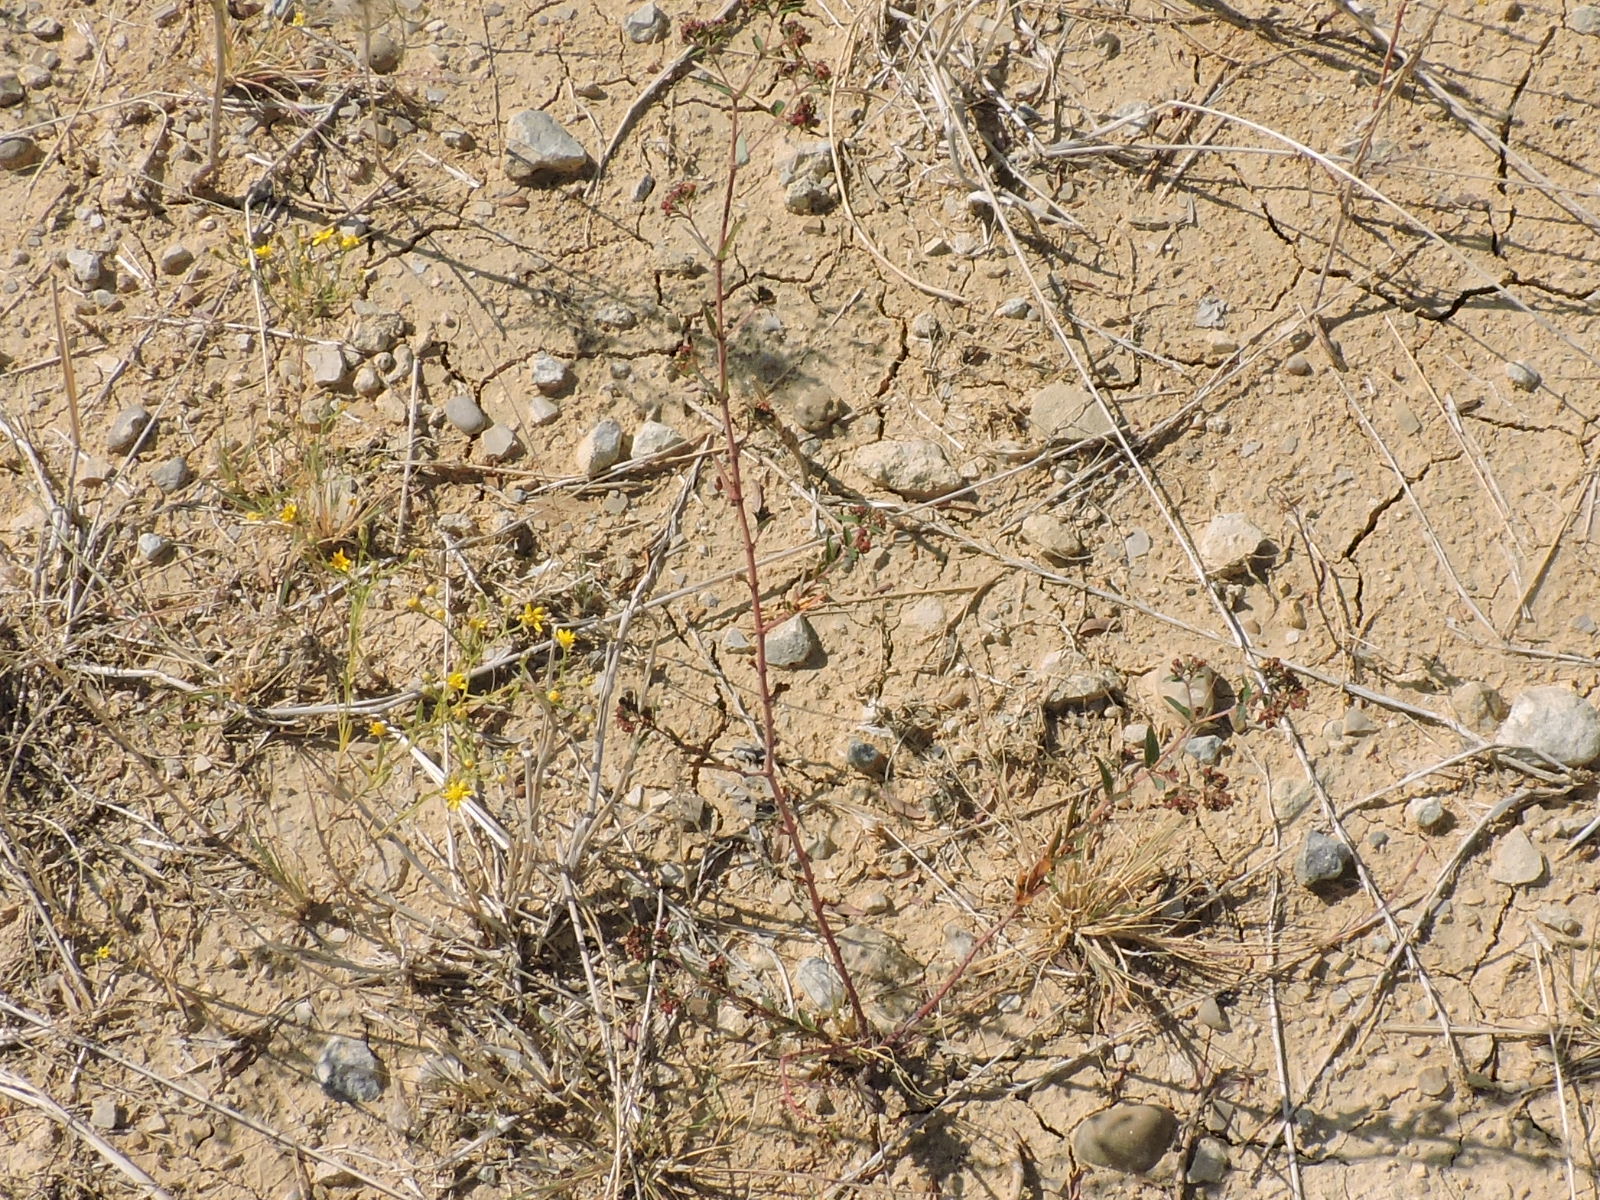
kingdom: Plantae
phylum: Tracheophyta
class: Magnoliopsida
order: Malpighiales
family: Euphorbiaceae
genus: Euphorbia
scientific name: Euphorbia nutans
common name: Eyebane
